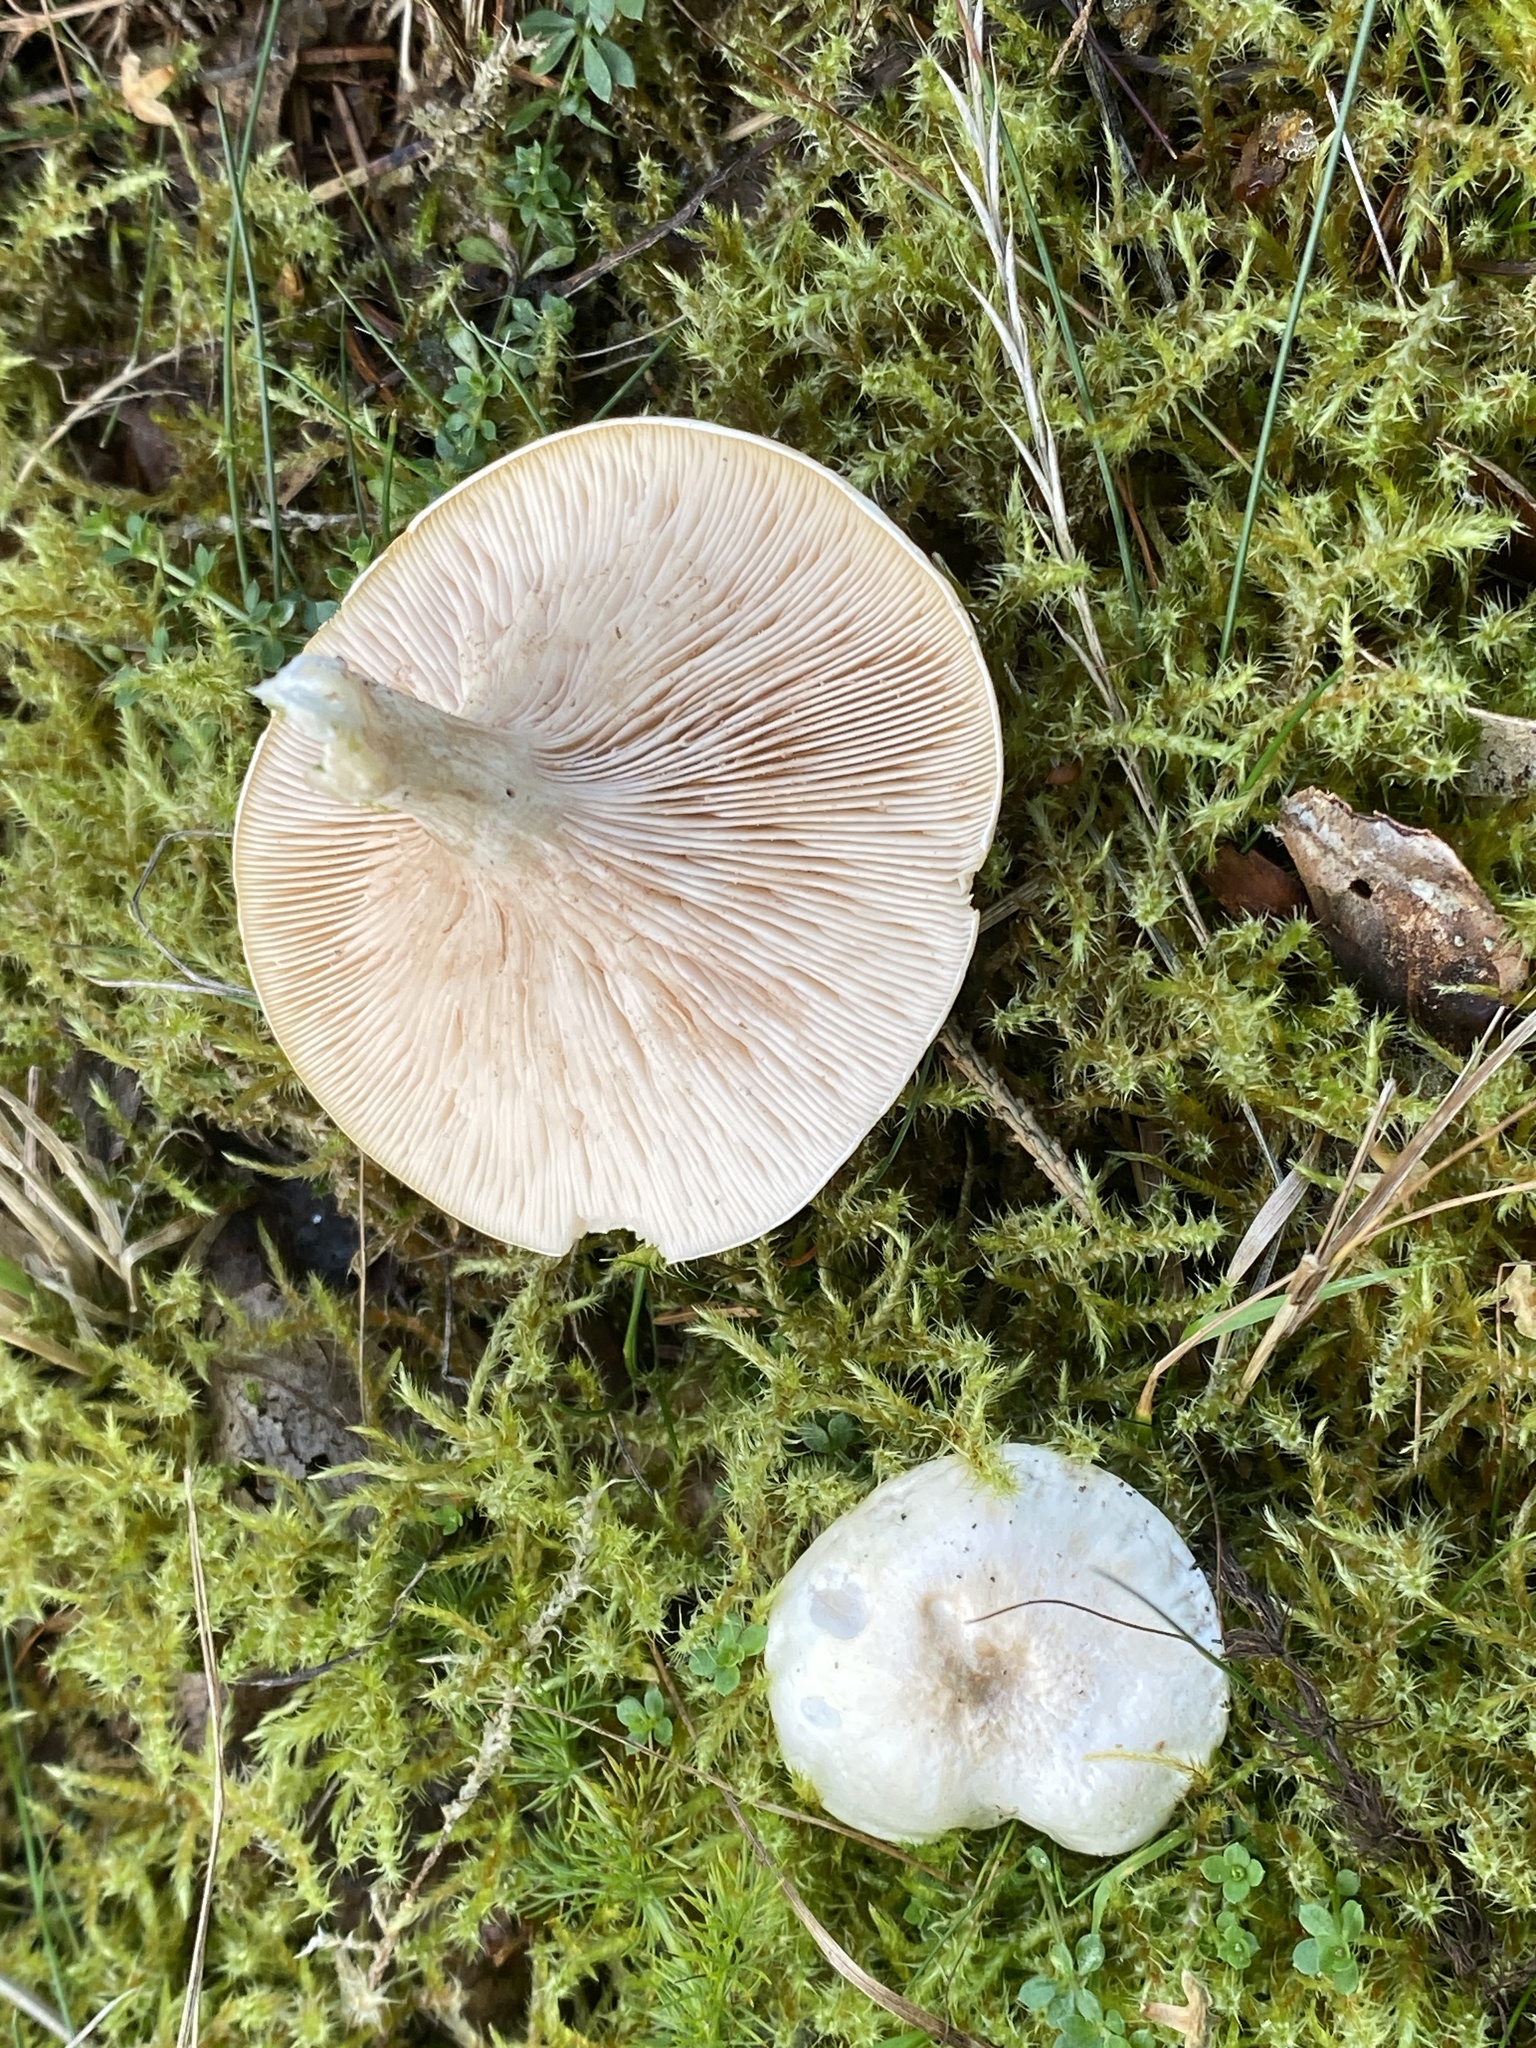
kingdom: Fungi
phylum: Basidiomycota
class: Agaricomycetes
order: Agaricales
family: Entolomataceae
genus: Clitopilus
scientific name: Clitopilus prunulus
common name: The miller
